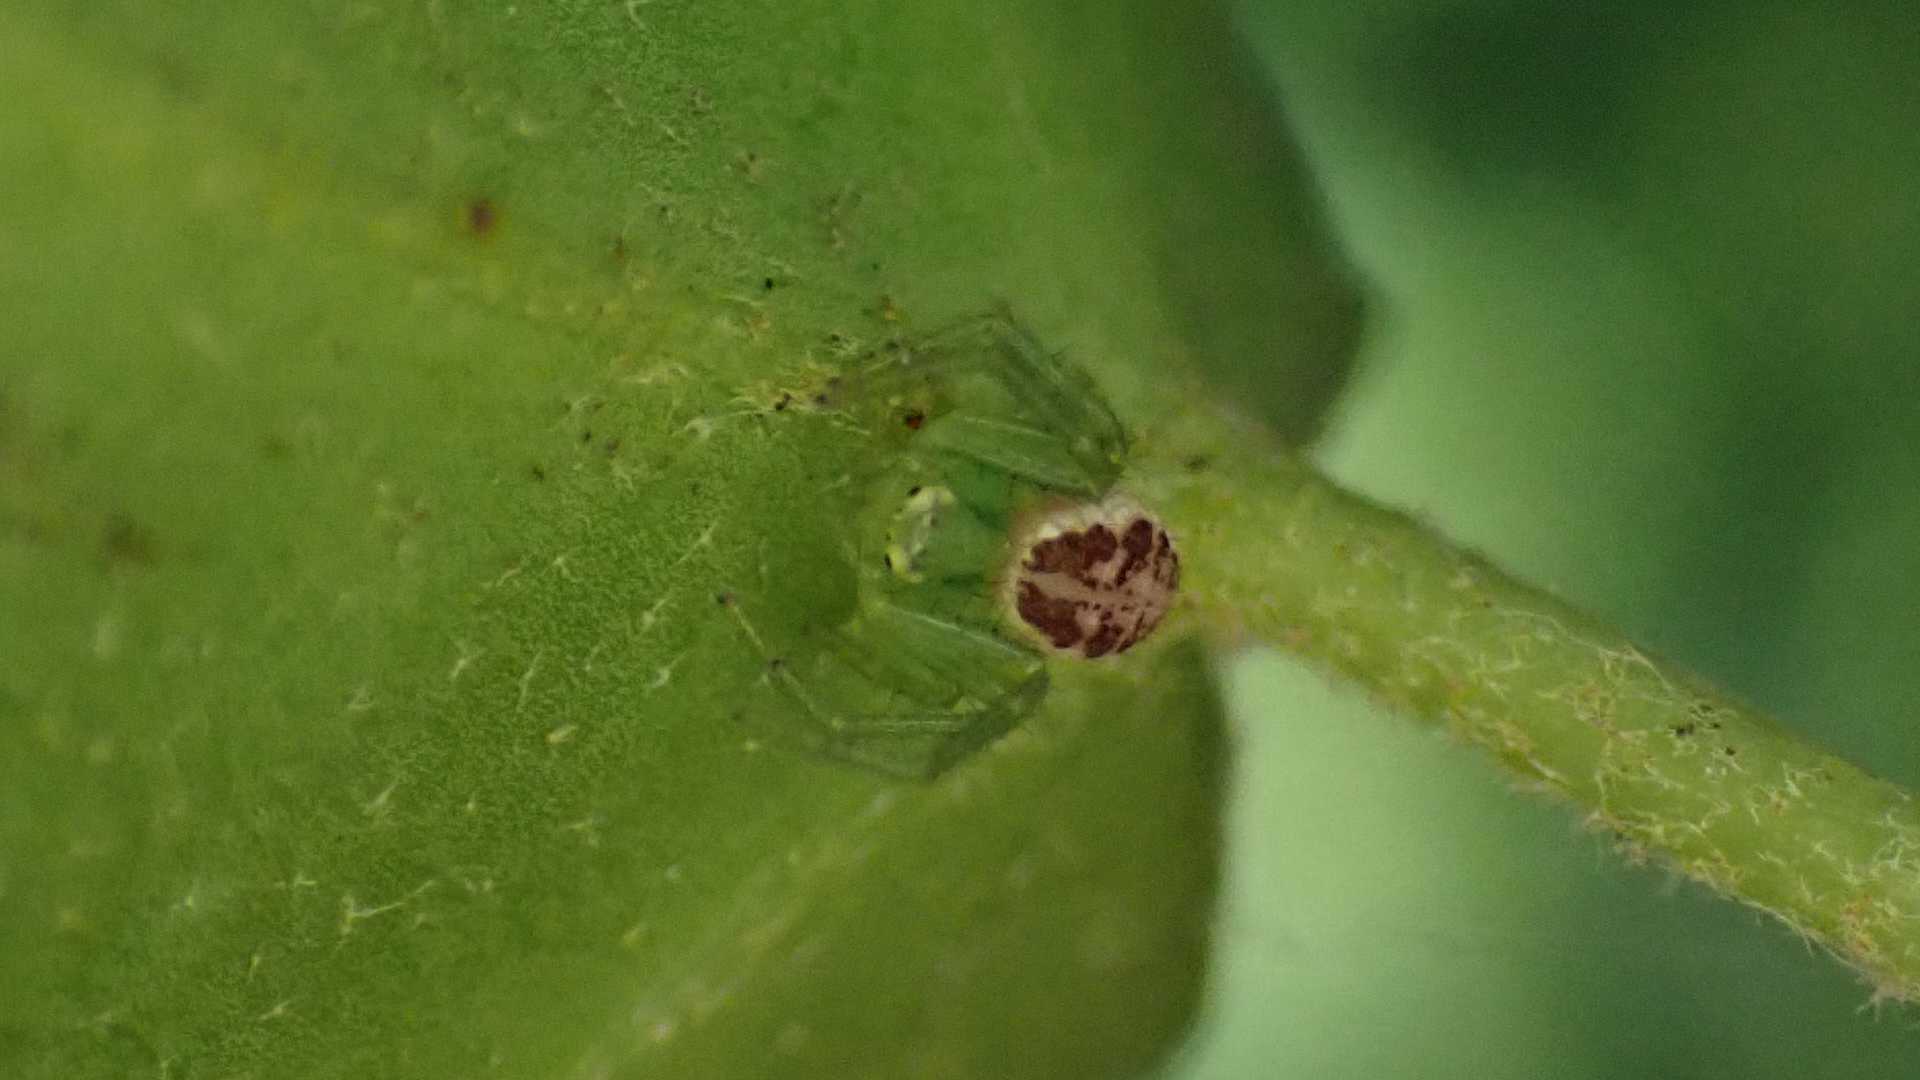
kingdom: Animalia
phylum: Arthropoda
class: Arachnida
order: Araneae
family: Thomisidae
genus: Diaea
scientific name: Diaea dorsata
